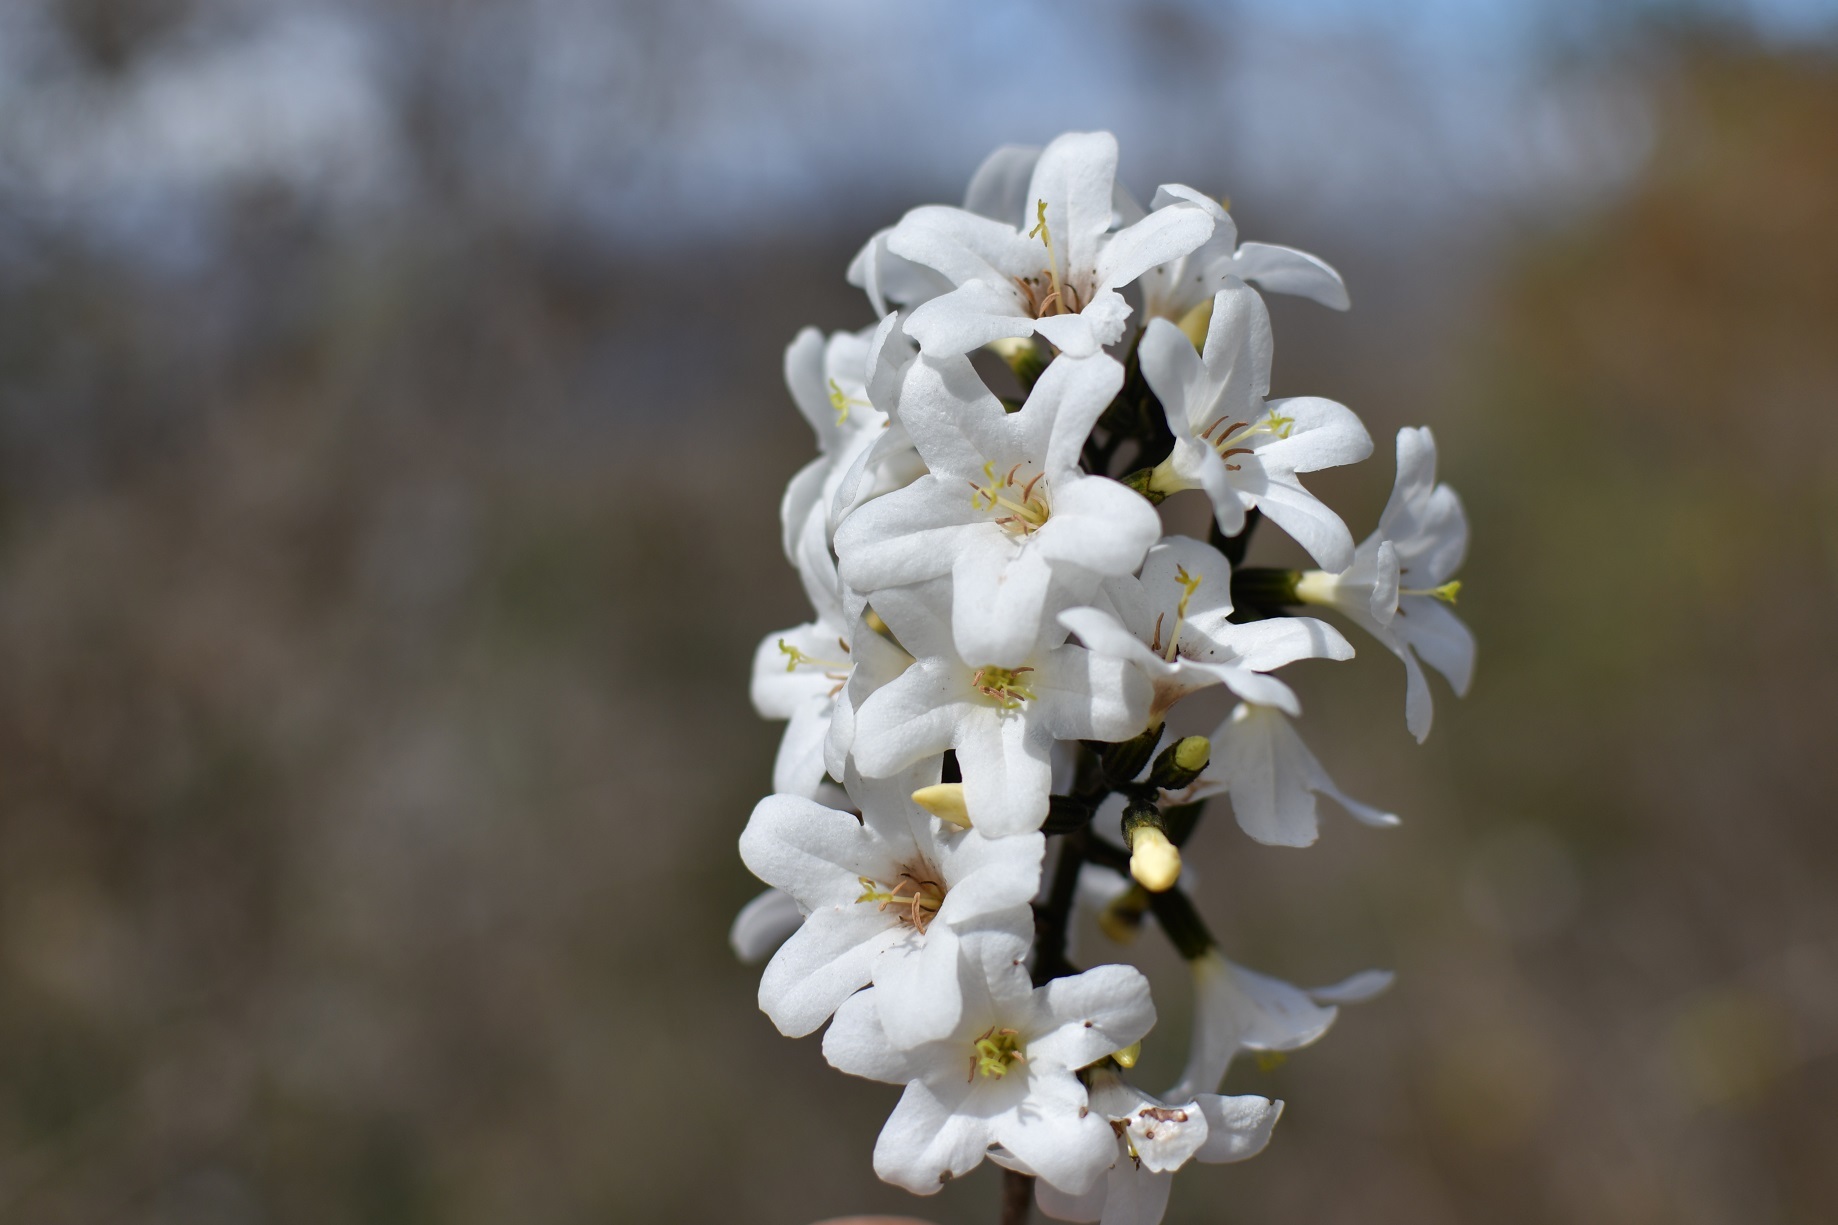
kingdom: Plantae
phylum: Tracheophyta
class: Magnoliopsida
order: Boraginales
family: Cordiaceae
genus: Cordia
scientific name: Cordia alliodora
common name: Spanish elm
